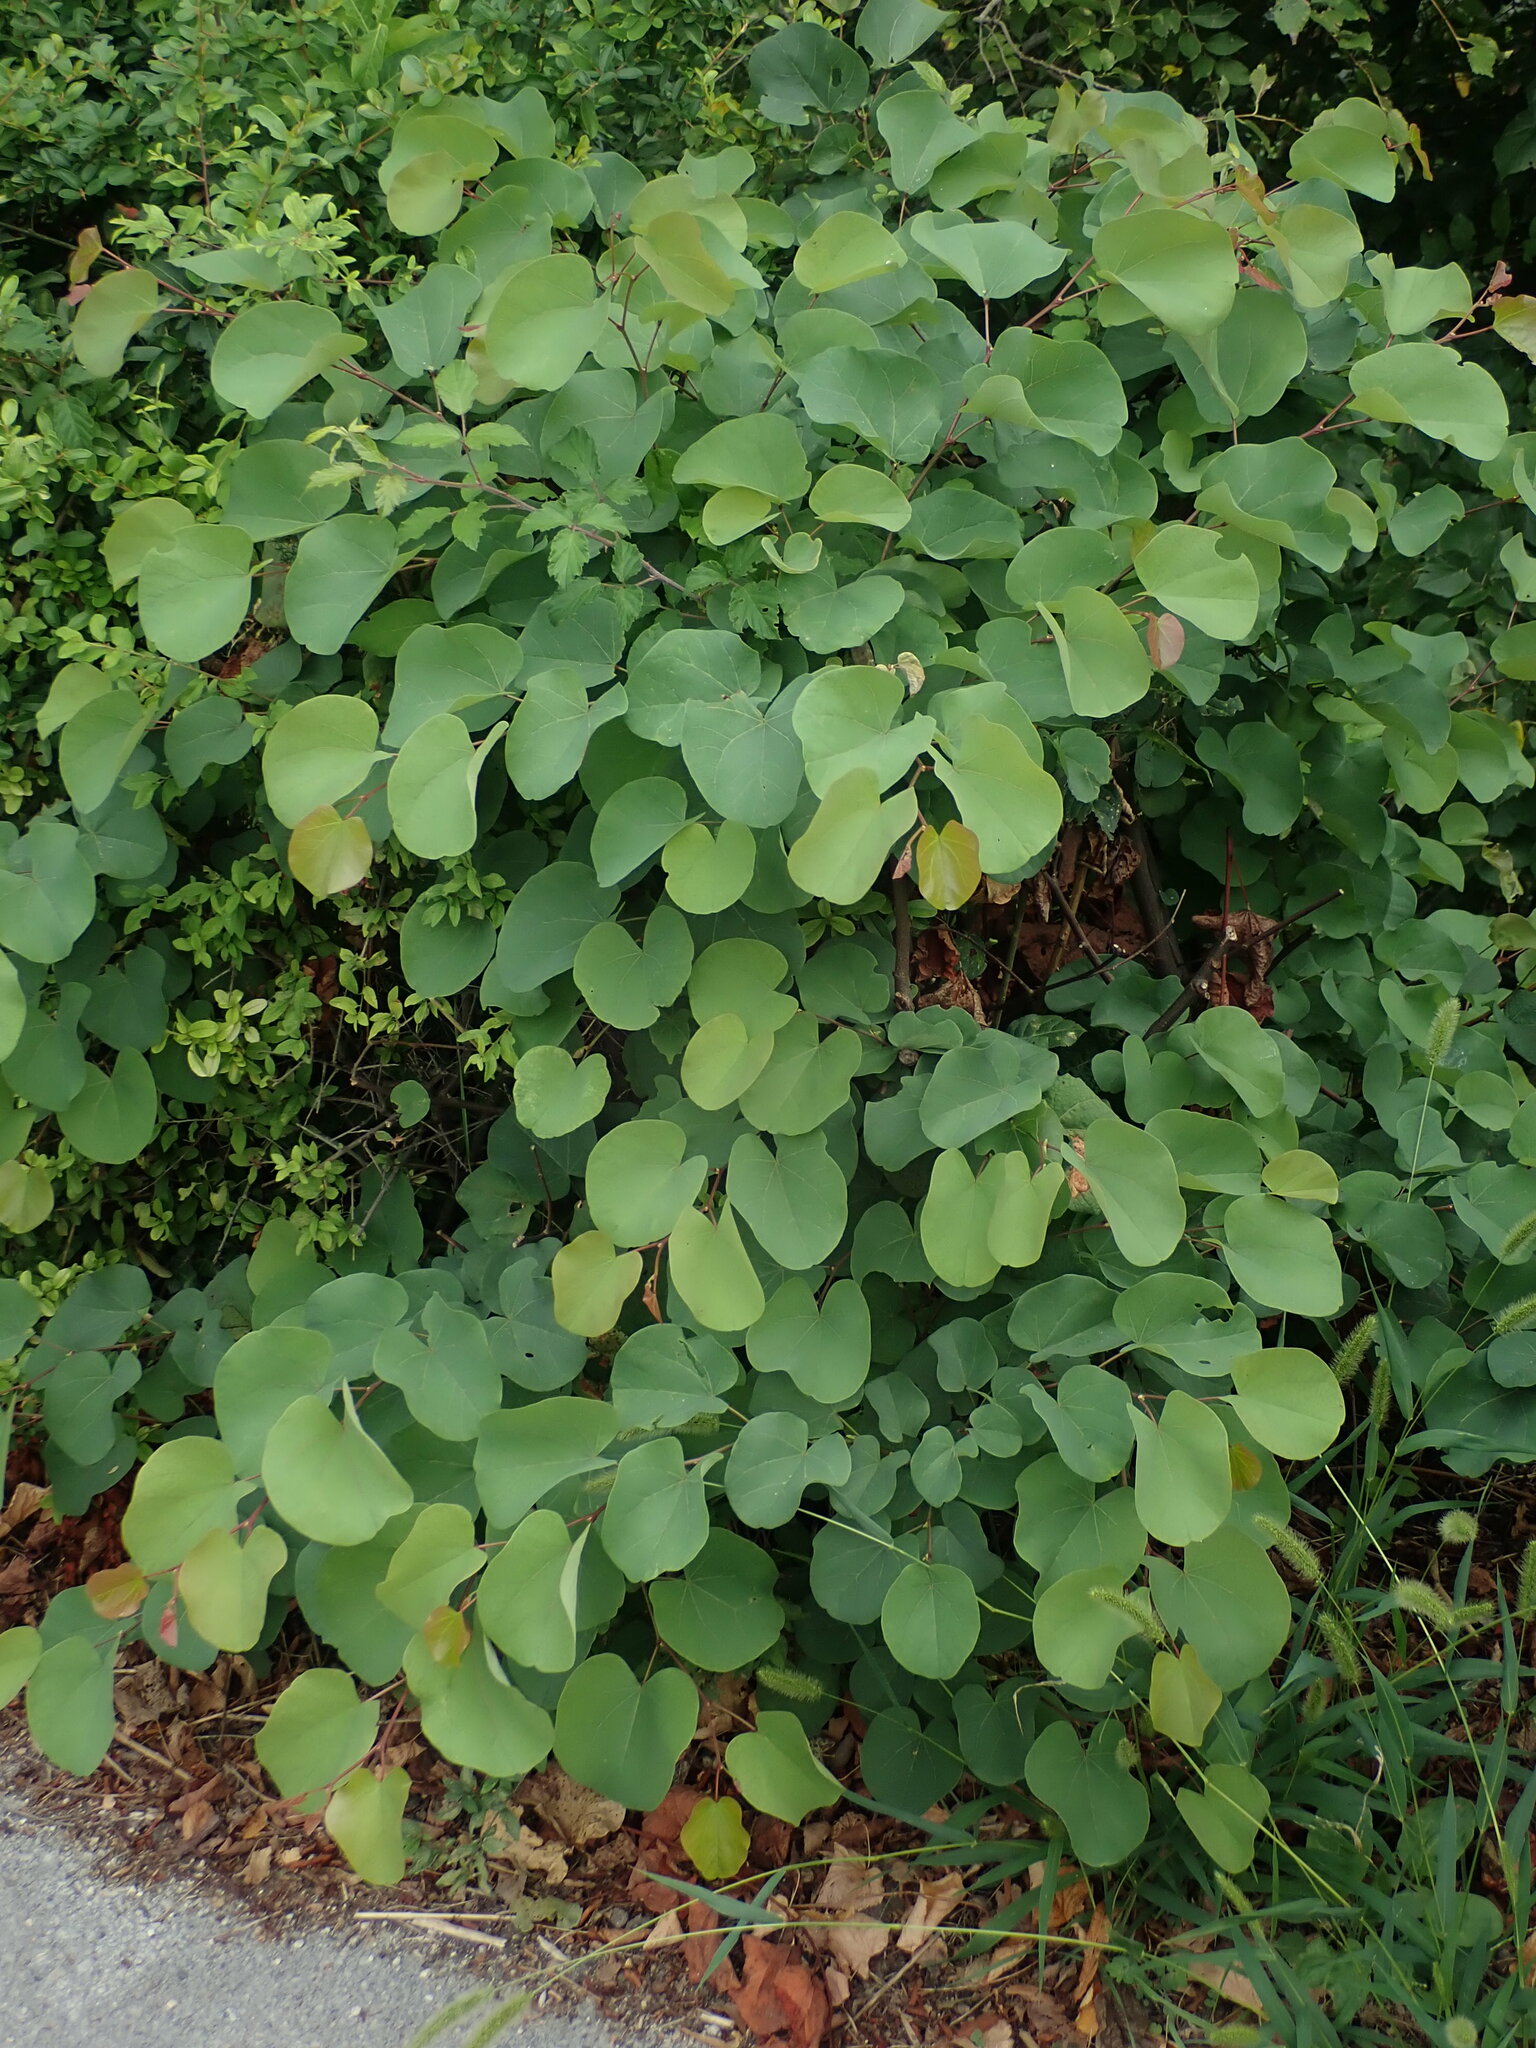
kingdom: Plantae
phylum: Tracheophyta
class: Magnoliopsida
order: Fabales
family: Fabaceae
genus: Cercis
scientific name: Cercis siliquastrum
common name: Judas tree
